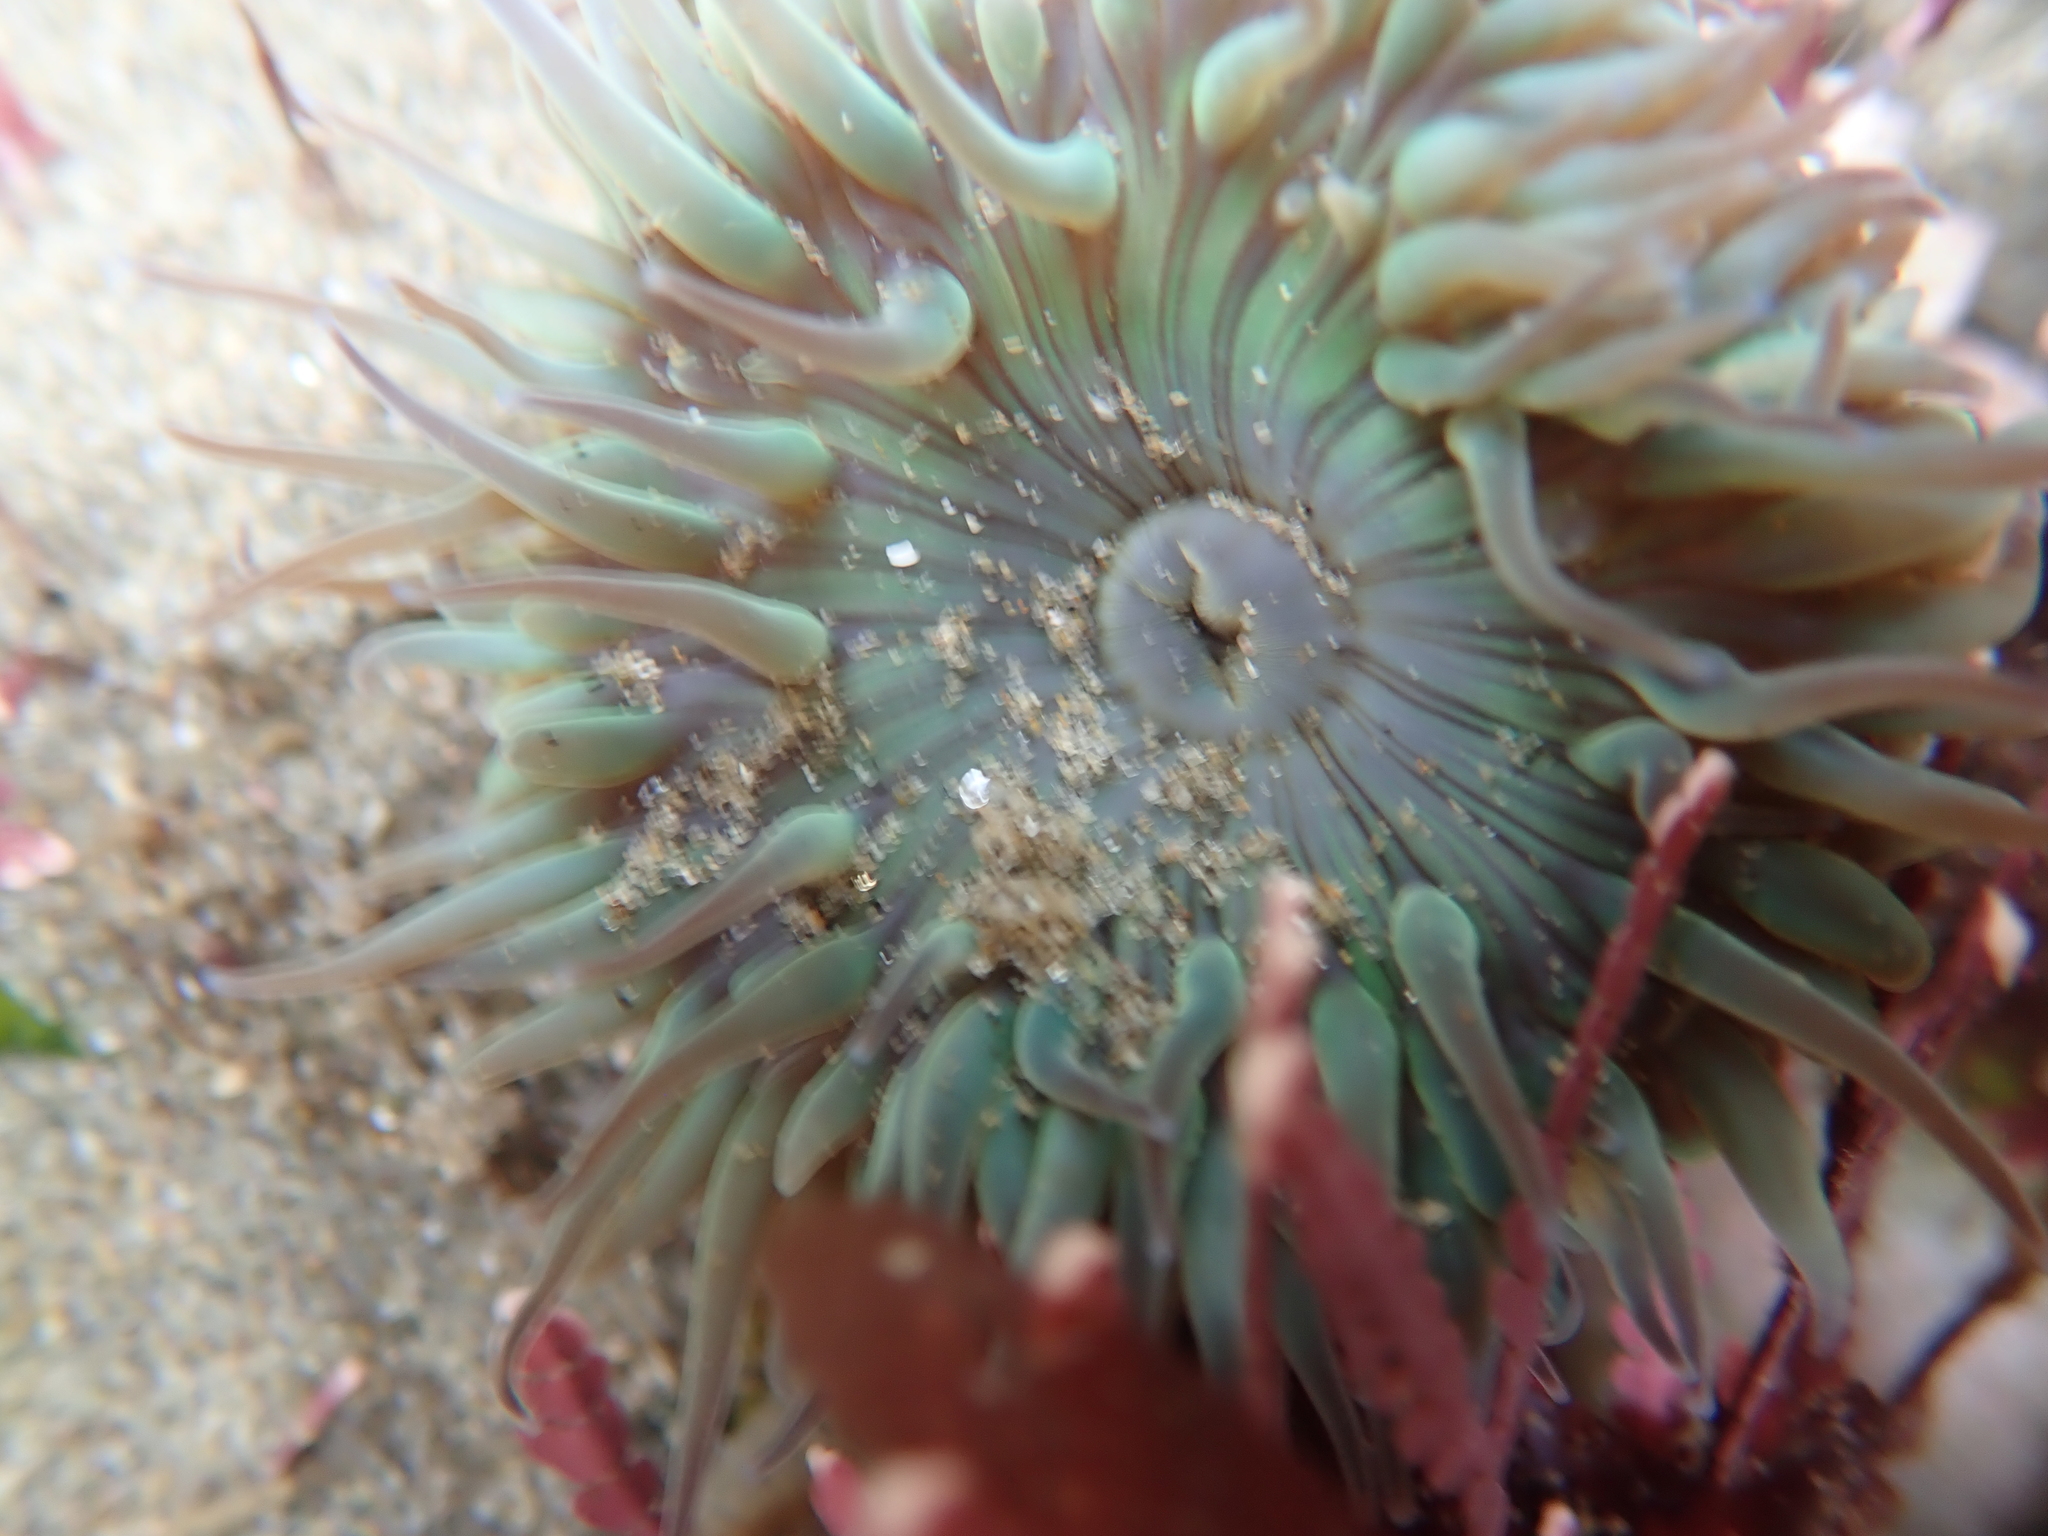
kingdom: Animalia
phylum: Cnidaria
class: Anthozoa
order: Actiniaria
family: Actiniidae
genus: Anthopleura
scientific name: Anthopleura sola
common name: Sun anemone
